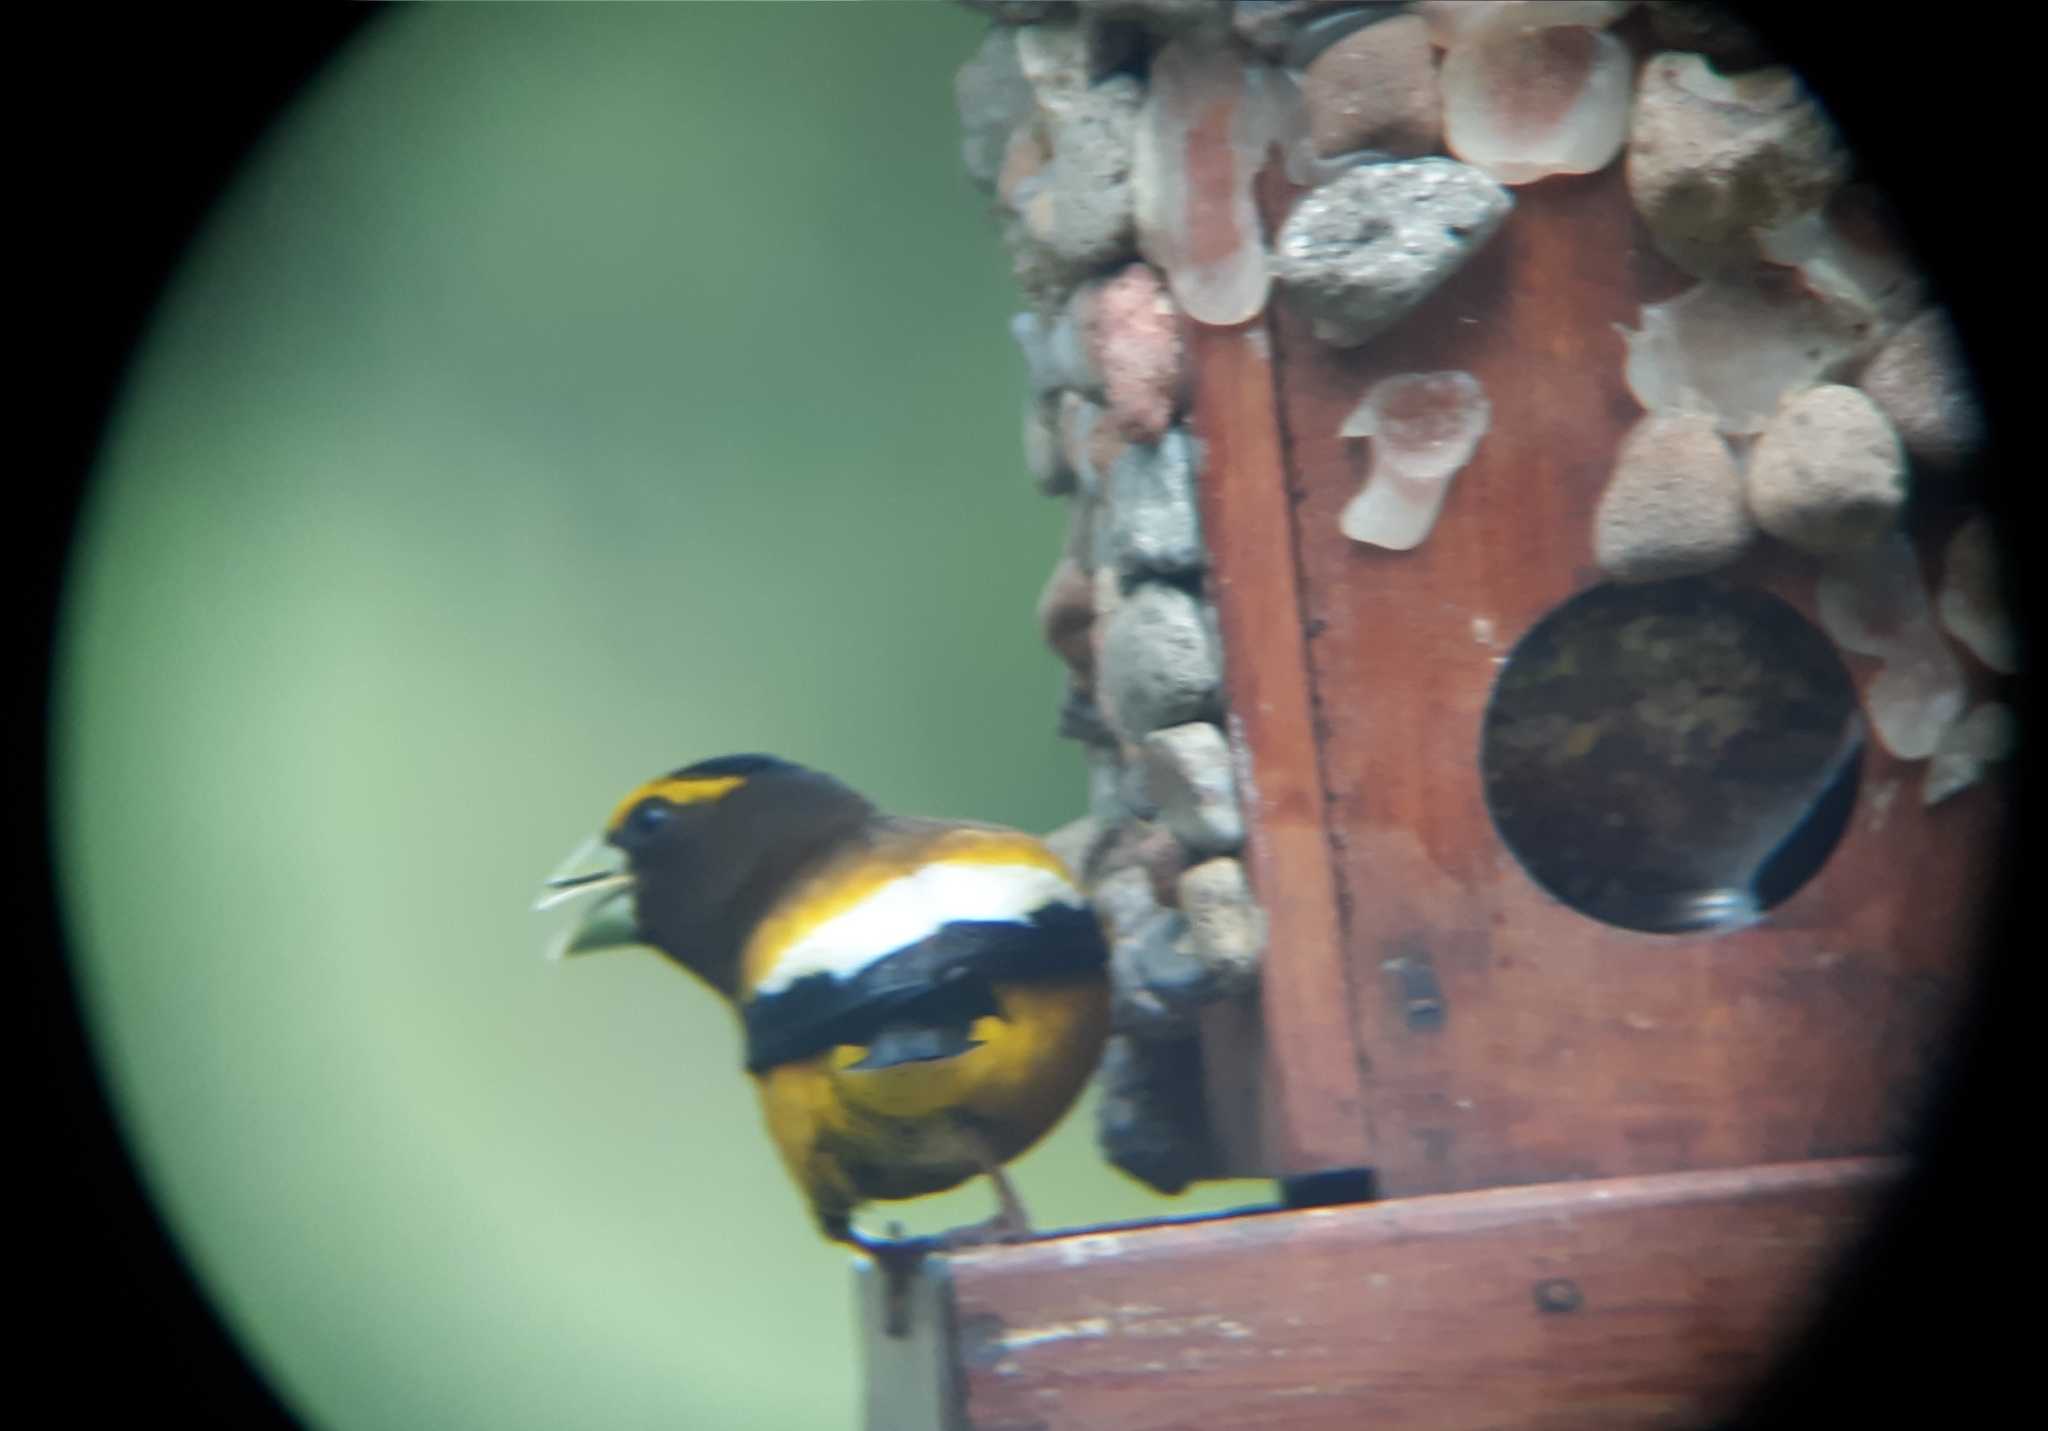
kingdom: Animalia
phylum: Chordata
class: Aves
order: Passeriformes
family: Fringillidae
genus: Hesperiphona
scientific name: Hesperiphona vespertina
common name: Evening grosbeak
